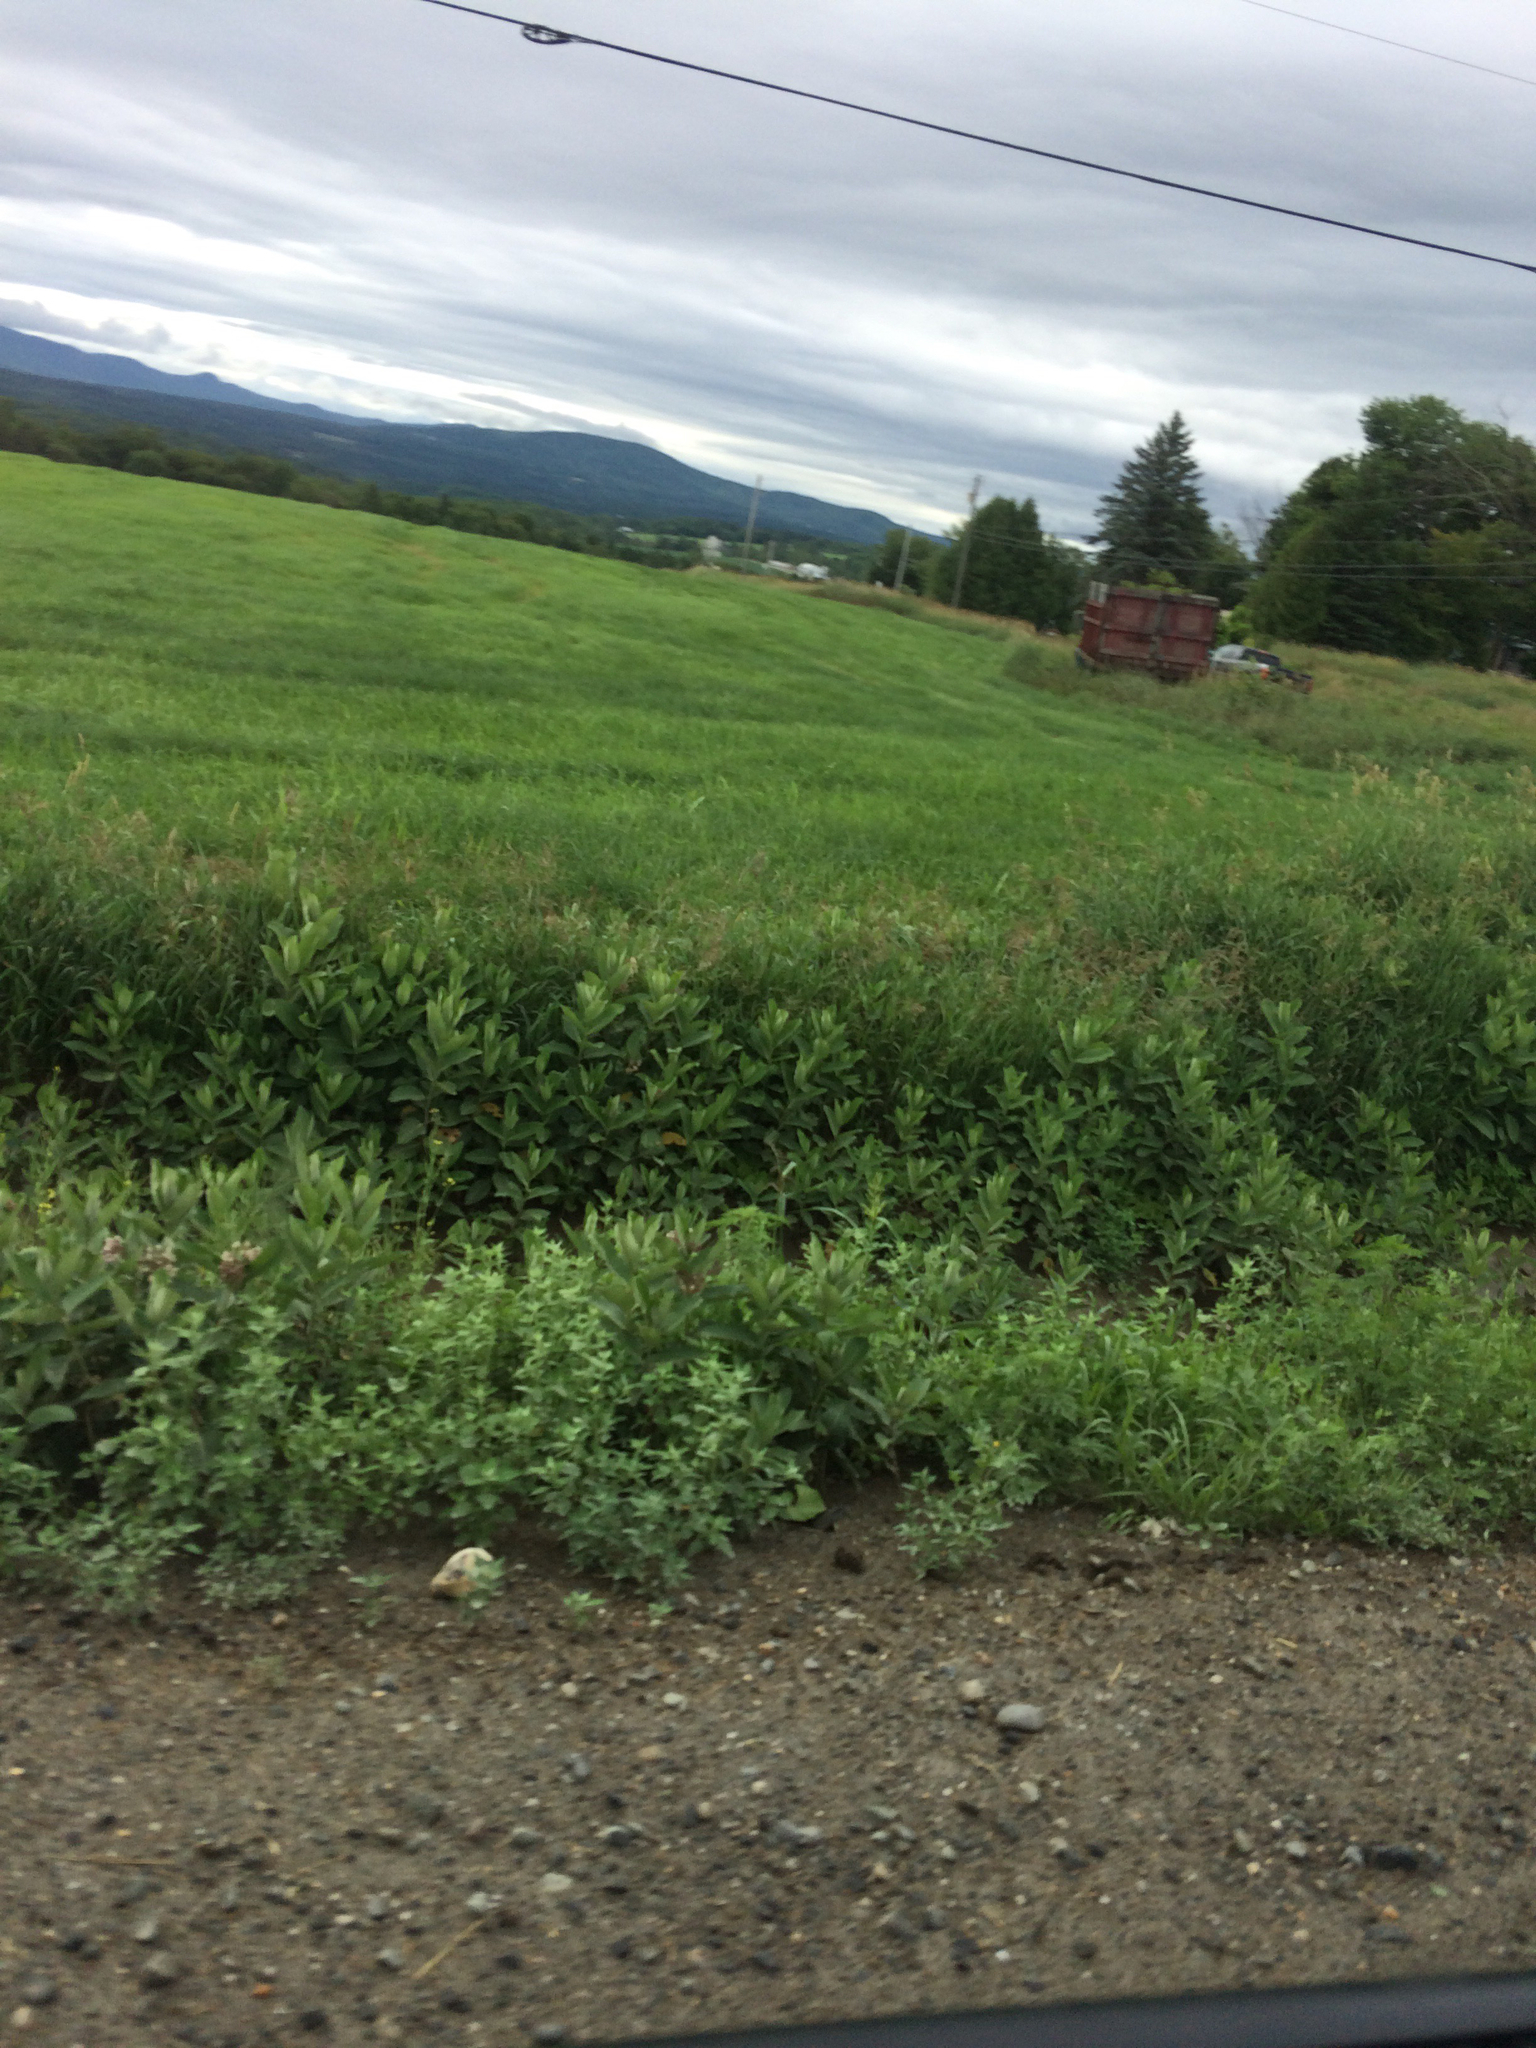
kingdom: Plantae
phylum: Tracheophyta
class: Magnoliopsida
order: Gentianales
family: Apocynaceae
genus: Asclepias
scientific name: Asclepias syriaca
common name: Common milkweed
